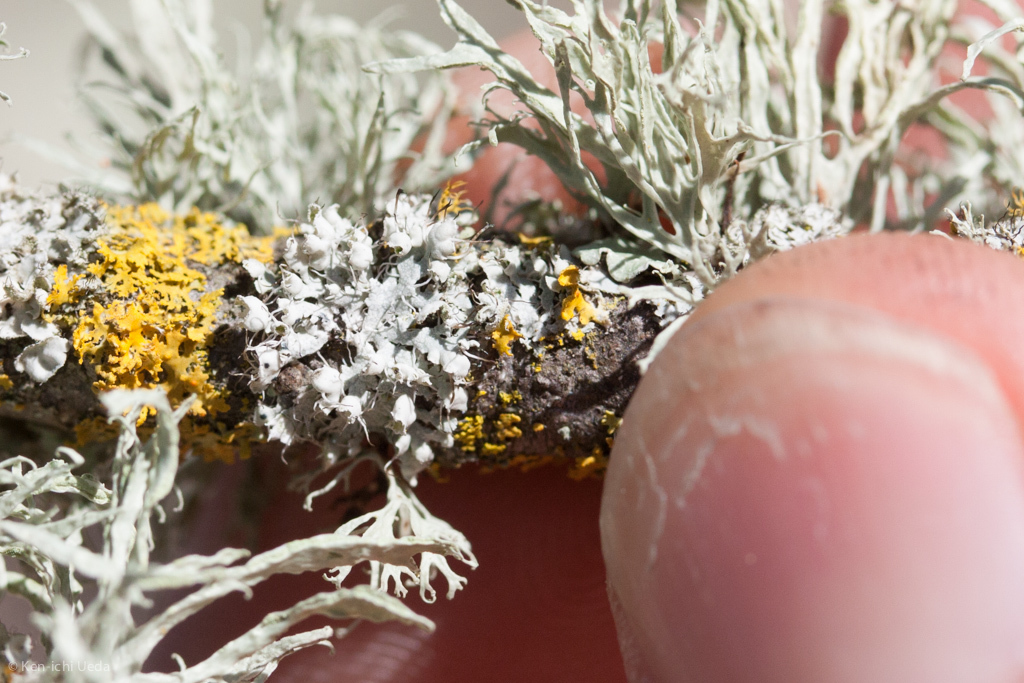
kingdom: Fungi
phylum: Ascomycota
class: Lecanoromycetes
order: Caliciales
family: Physciaceae
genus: Physcia
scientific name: Physcia adscendens
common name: Hooded rosette lichen
